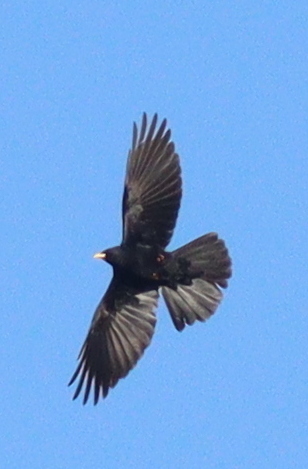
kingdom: Animalia
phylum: Chordata
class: Aves
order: Passeriformes
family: Corvidae
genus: Pyrrhocorax
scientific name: Pyrrhocorax graculus
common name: Alpine chough
